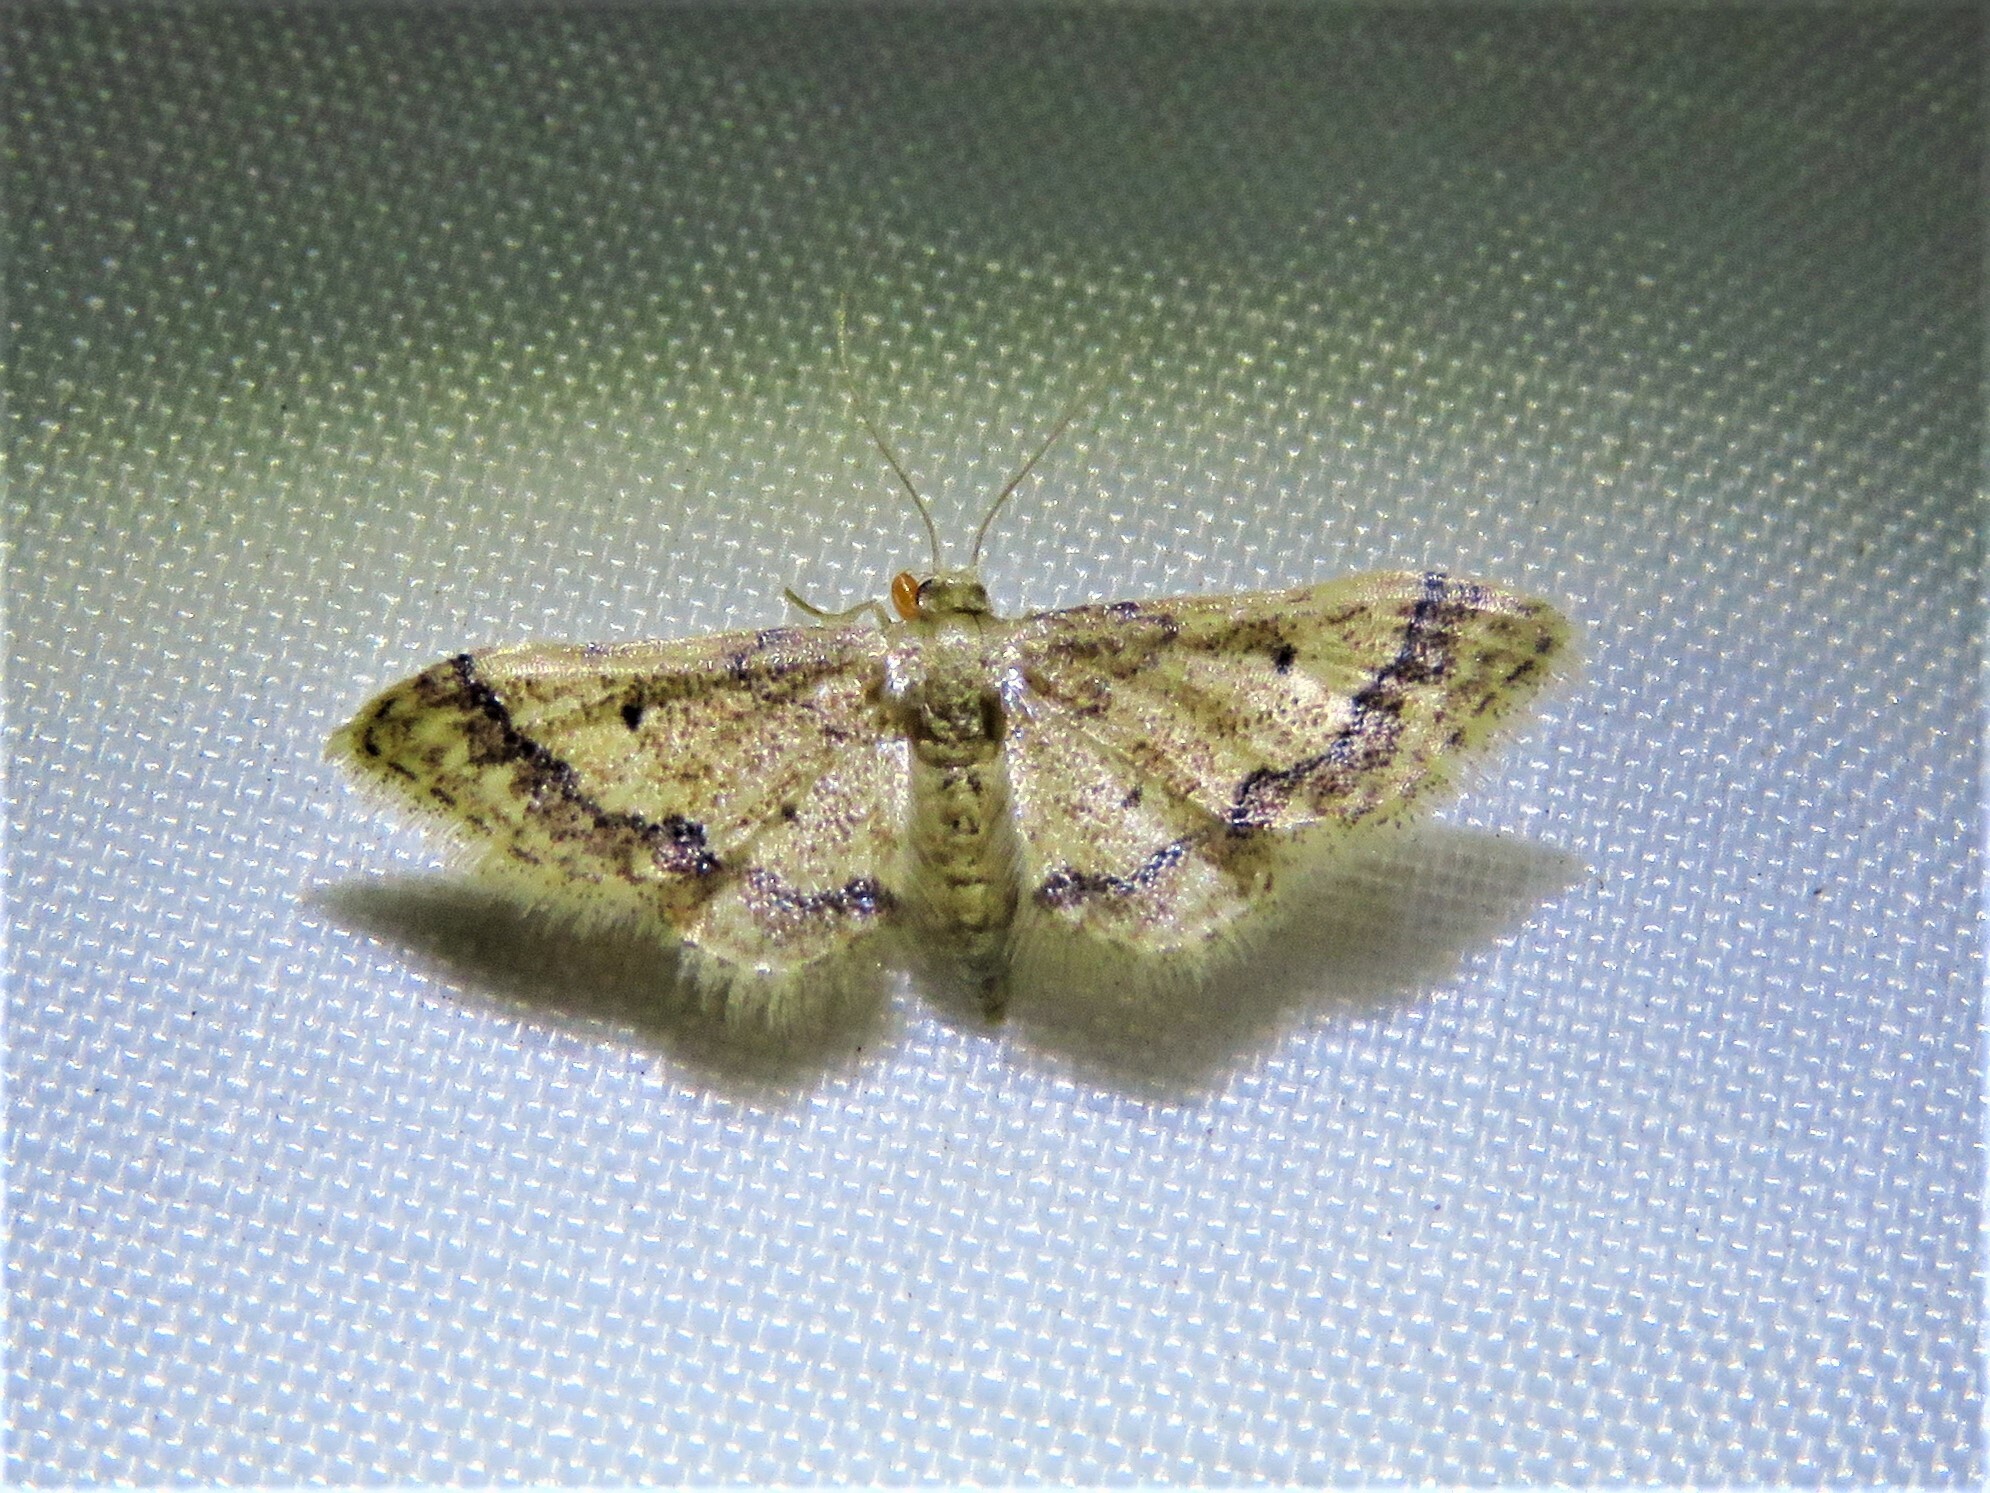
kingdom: Animalia
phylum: Arthropoda
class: Insecta
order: Lepidoptera
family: Geometridae
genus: Idaea
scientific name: Idaea celtima
